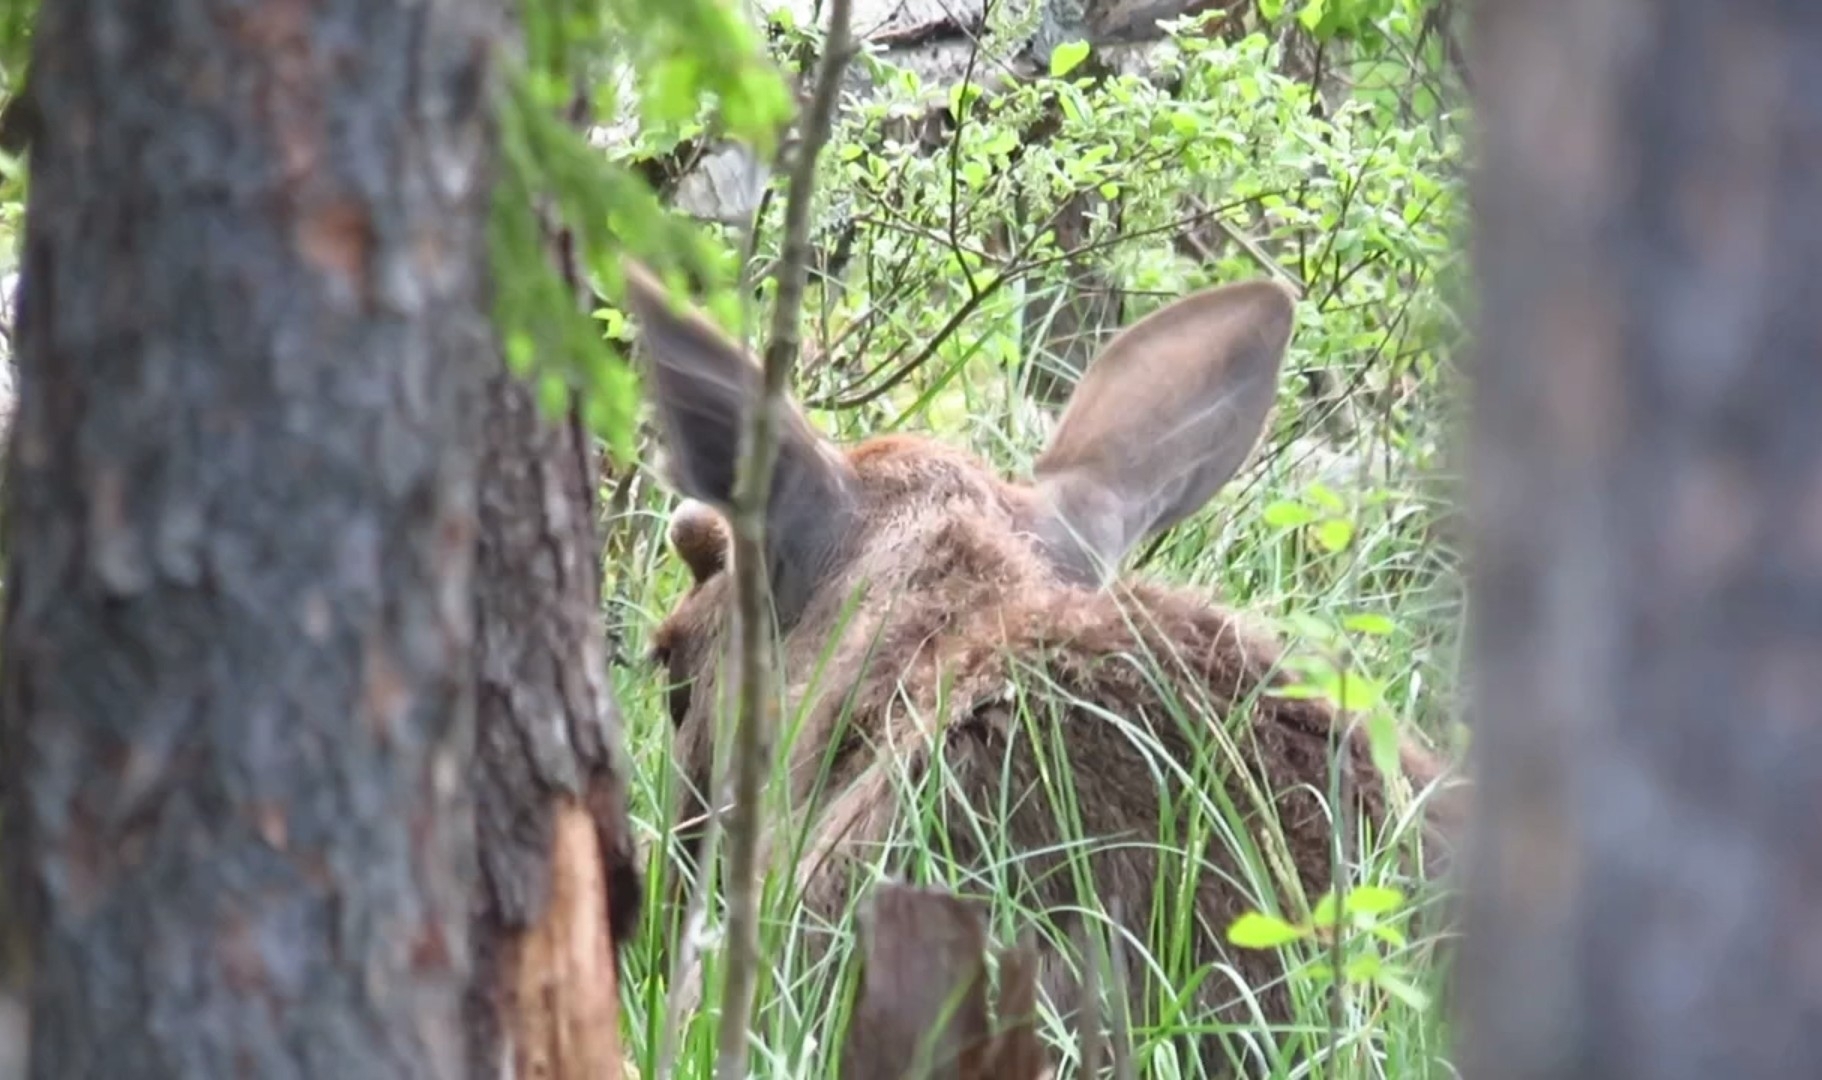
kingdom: Animalia
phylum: Chordata
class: Mammalia
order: Artiodactyla
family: Cervidae
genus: Alces
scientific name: Alces alces
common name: Moose
